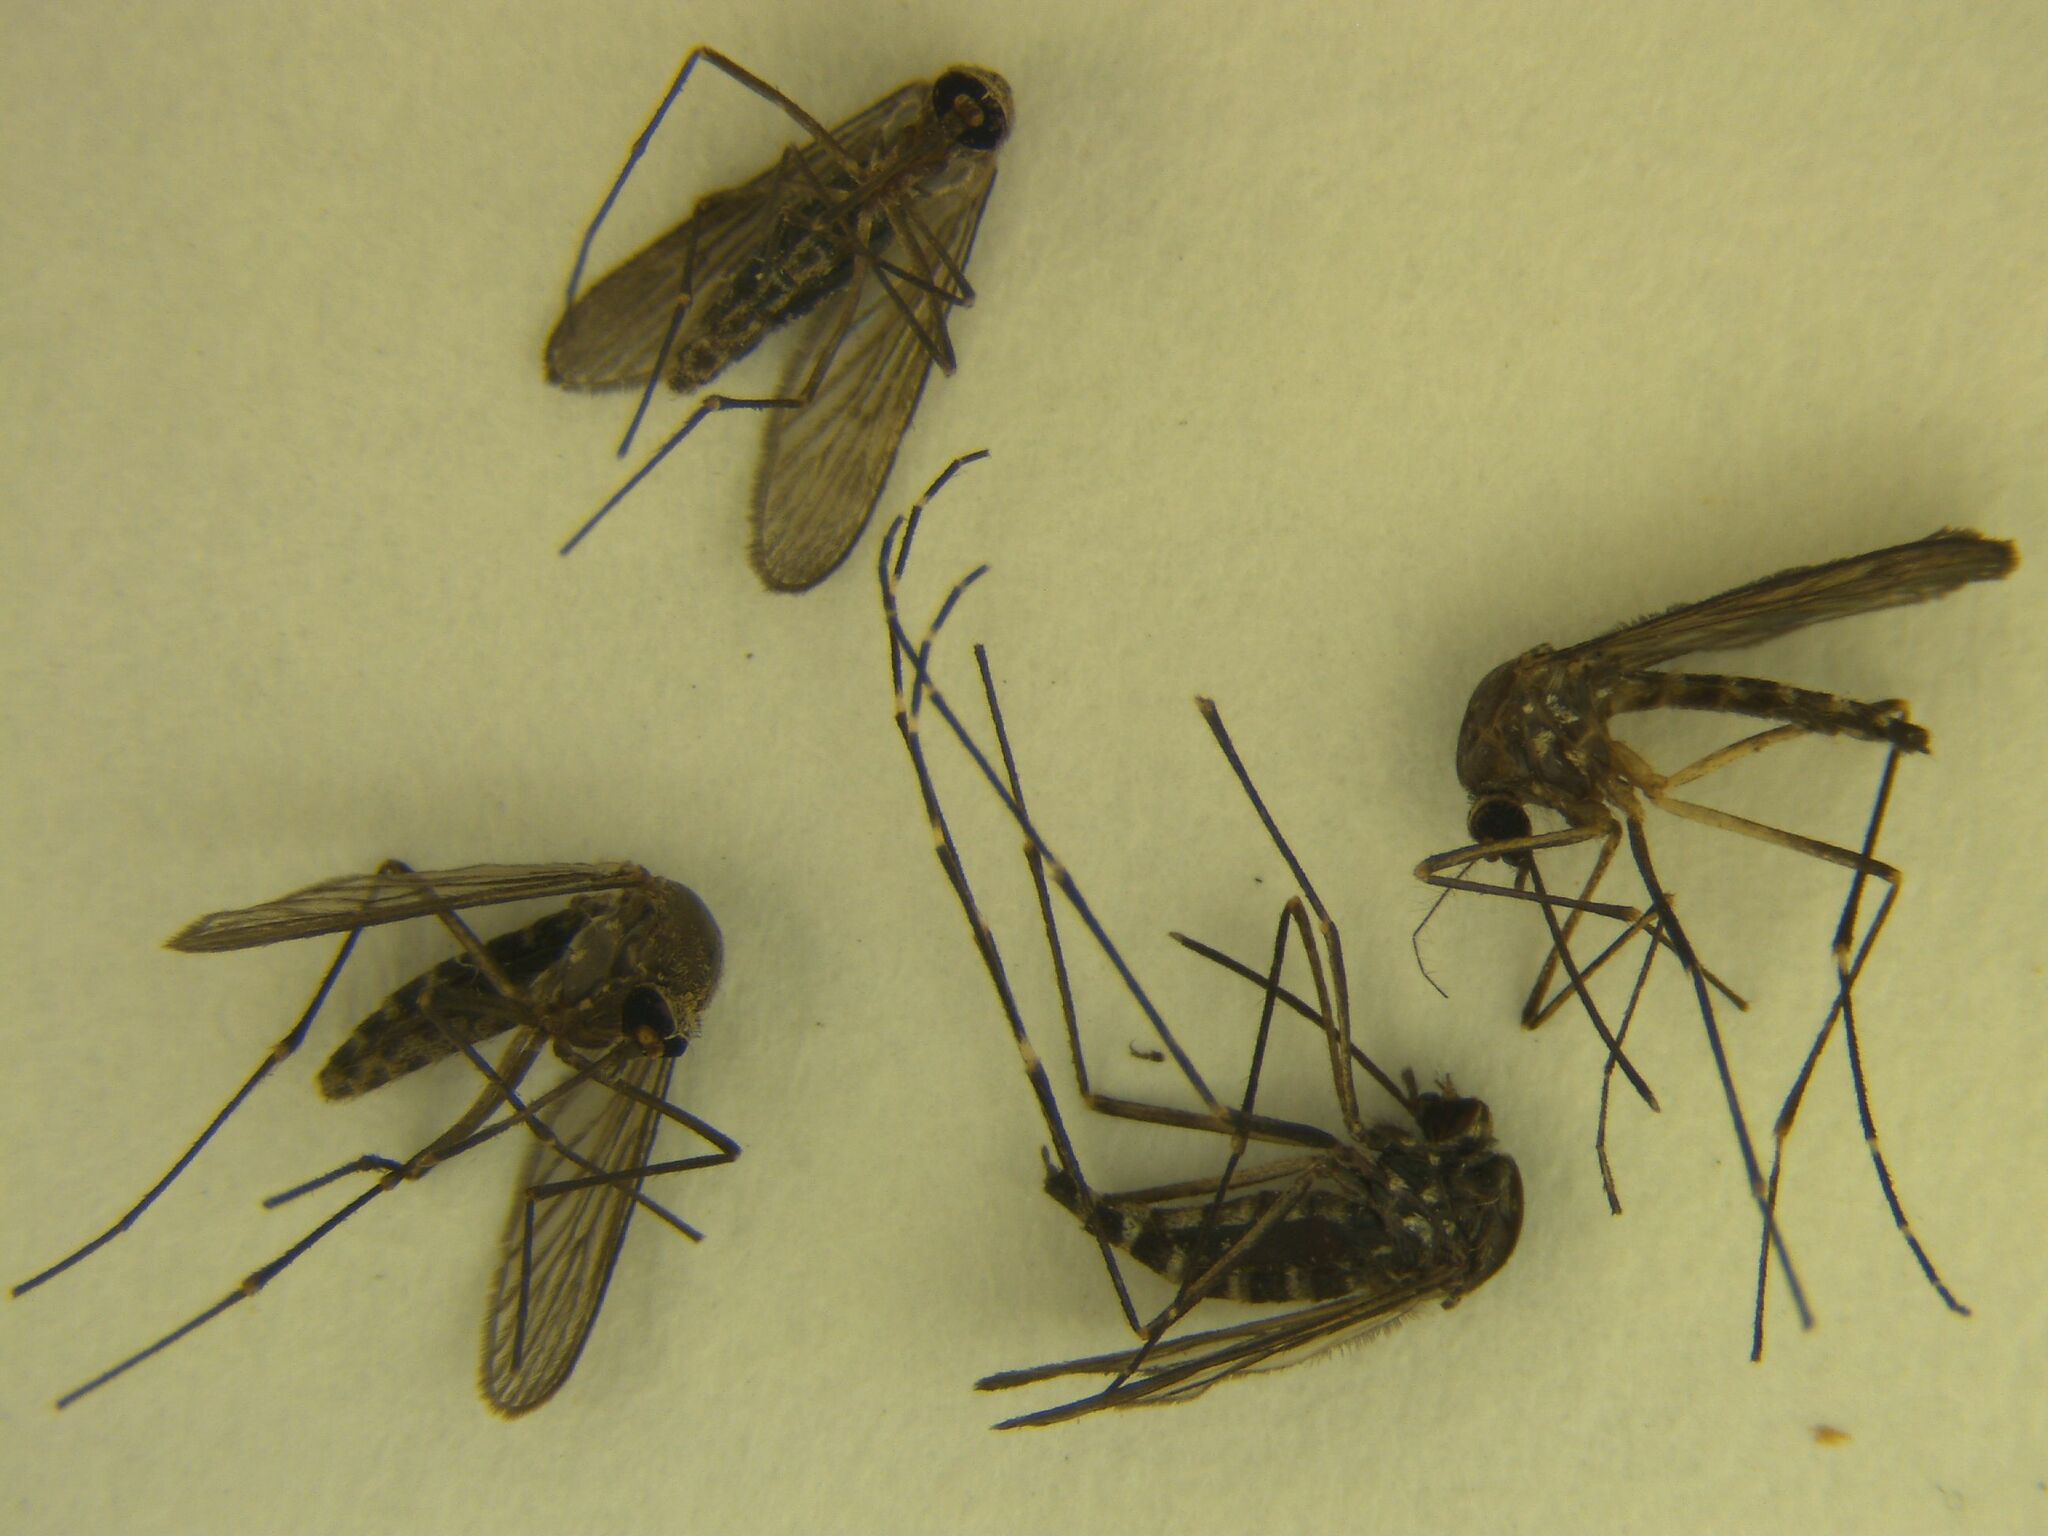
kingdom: Animalia
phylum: Arthropoda
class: Insecta
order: Diptera
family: Culicidae
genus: Aedes
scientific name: Aedes antipodeus
